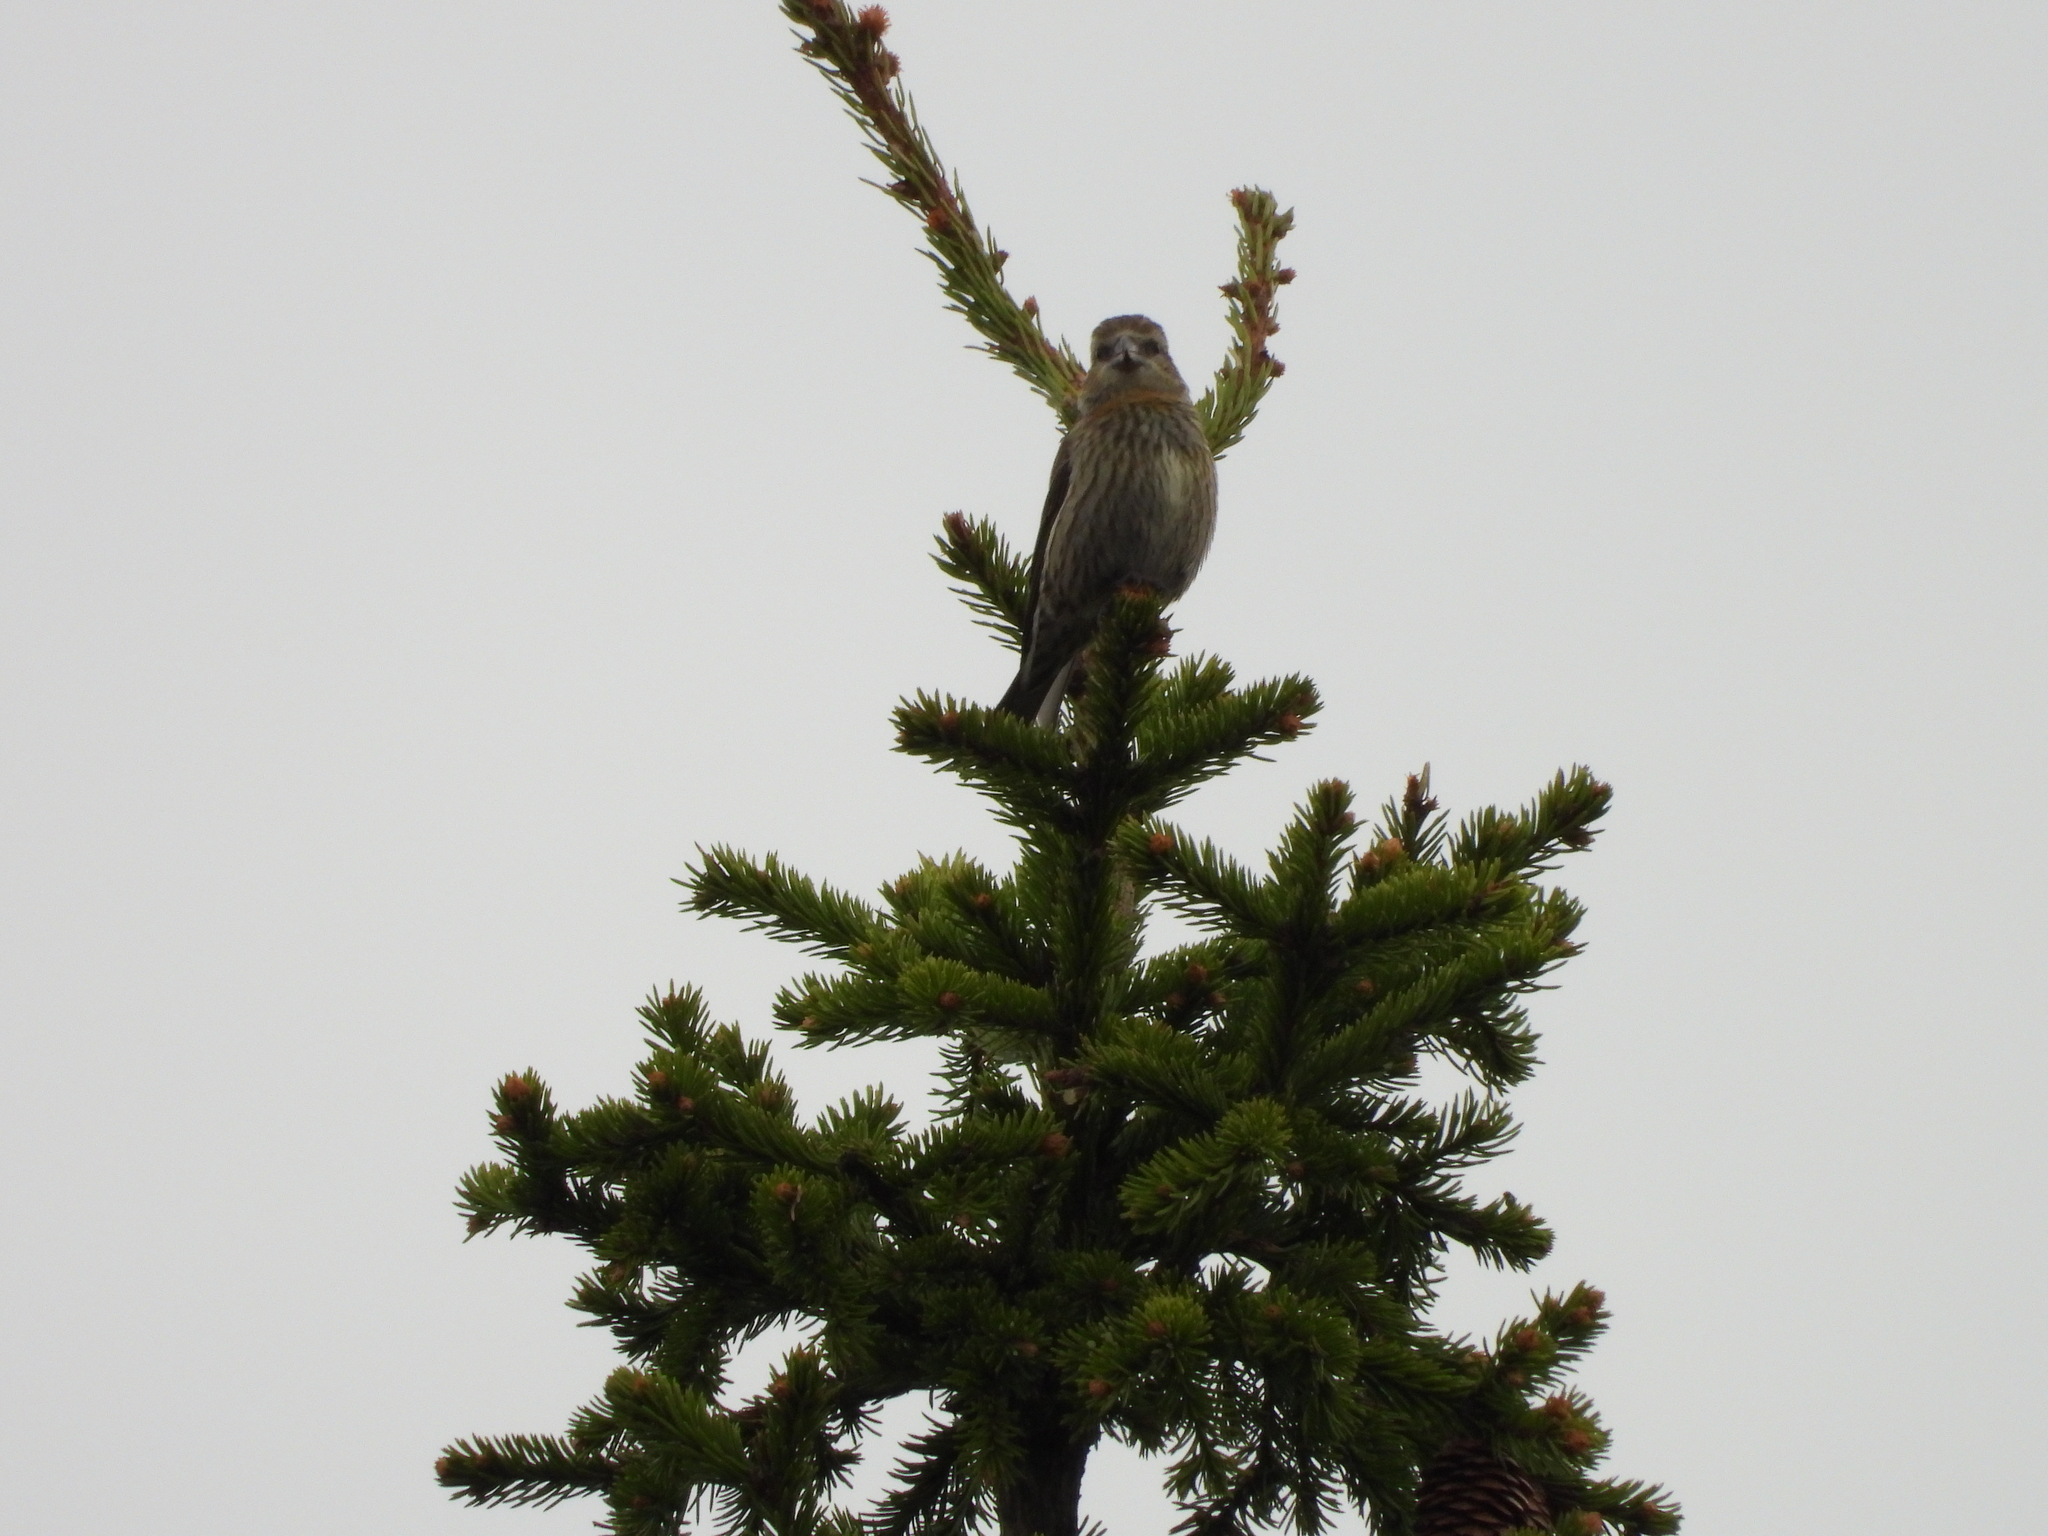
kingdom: Animalia
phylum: Chordata
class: Aves
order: Passeriformes
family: Fringillidae
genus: Loxia
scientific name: Loxia curvirostra
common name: Red crossbill
